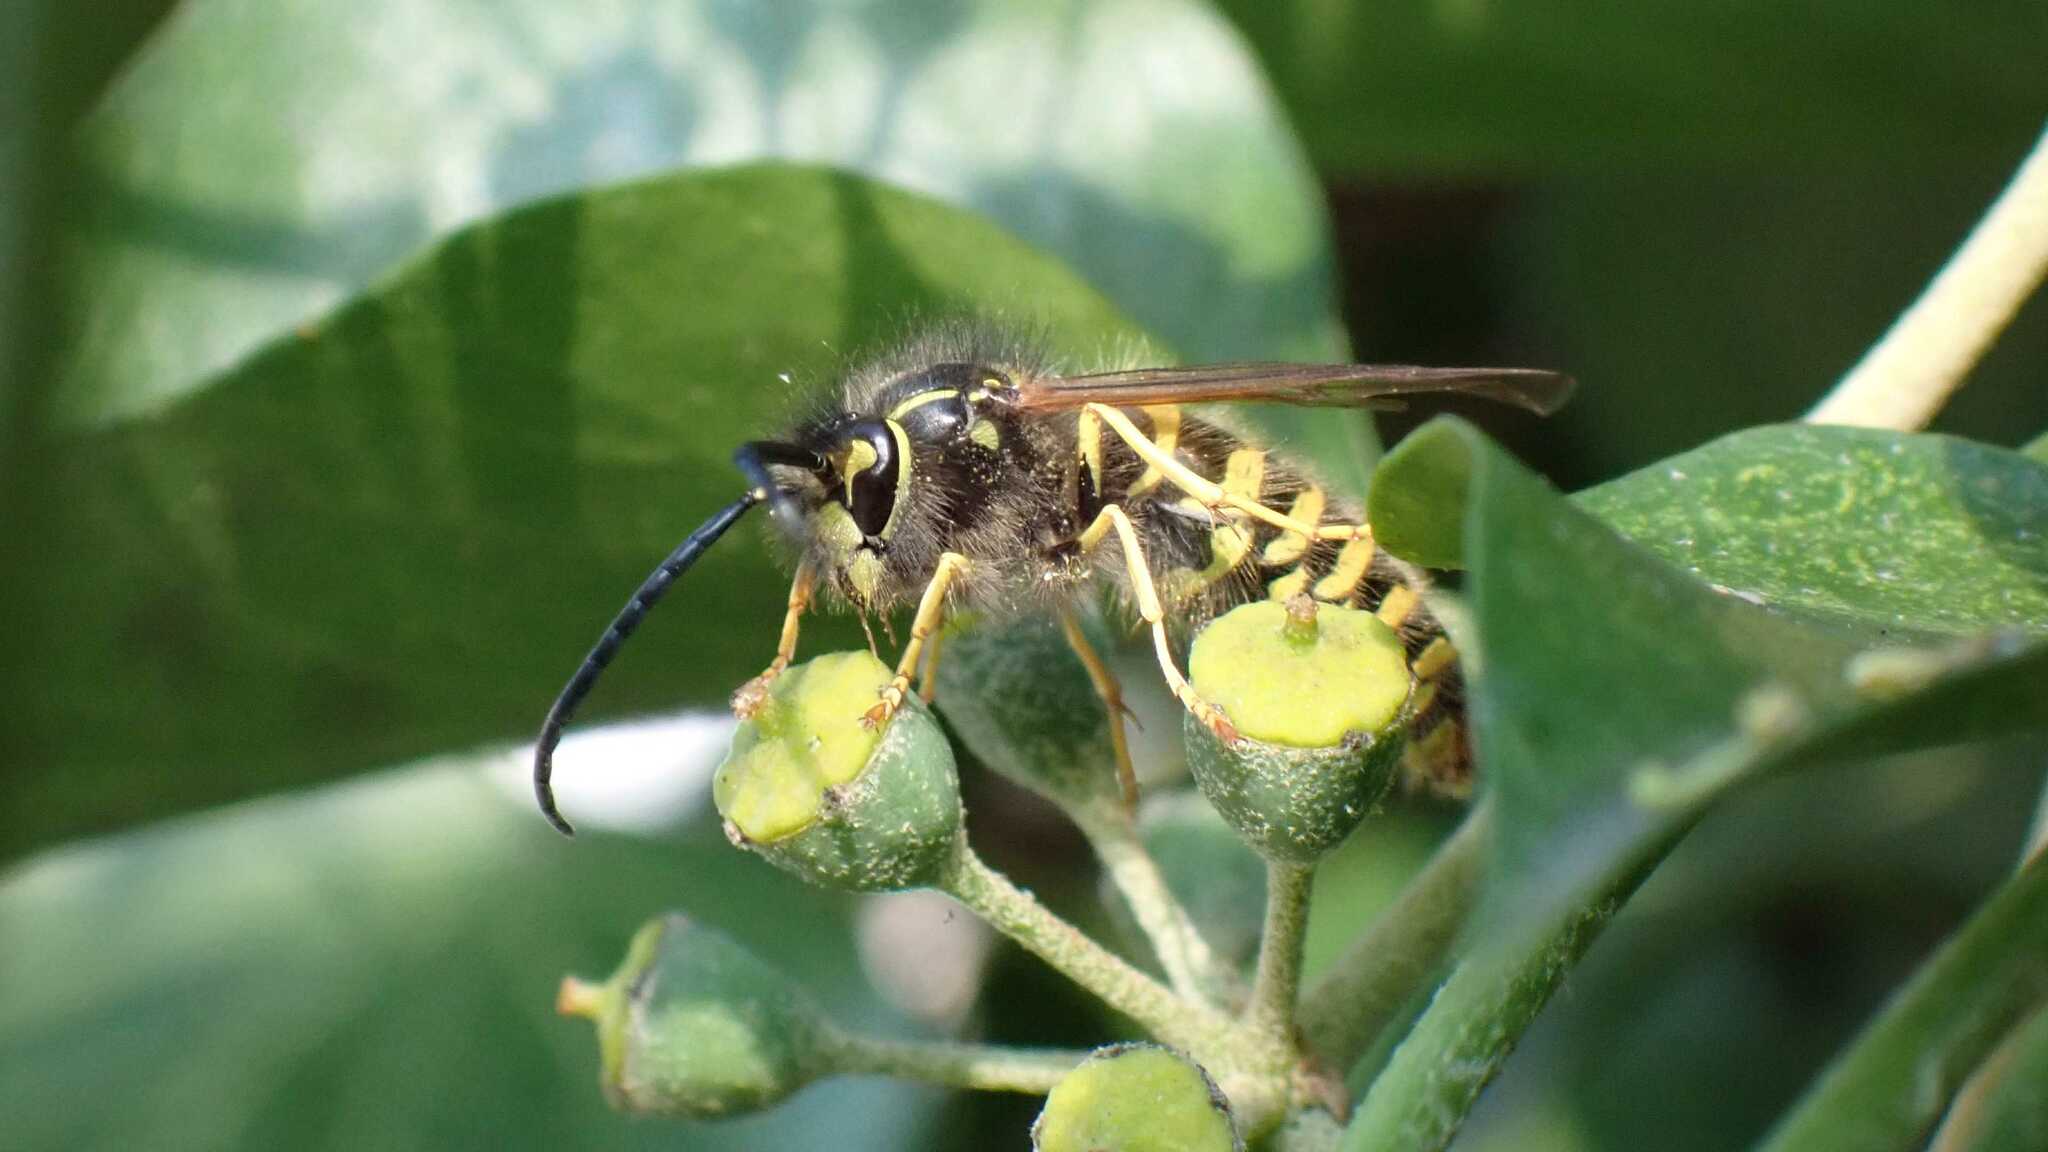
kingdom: Animalia
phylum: Arthropoda
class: Insecta
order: Hymenoptera
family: Vespidae
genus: Vespula
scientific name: Vespula vulgaris
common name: Common wasp
